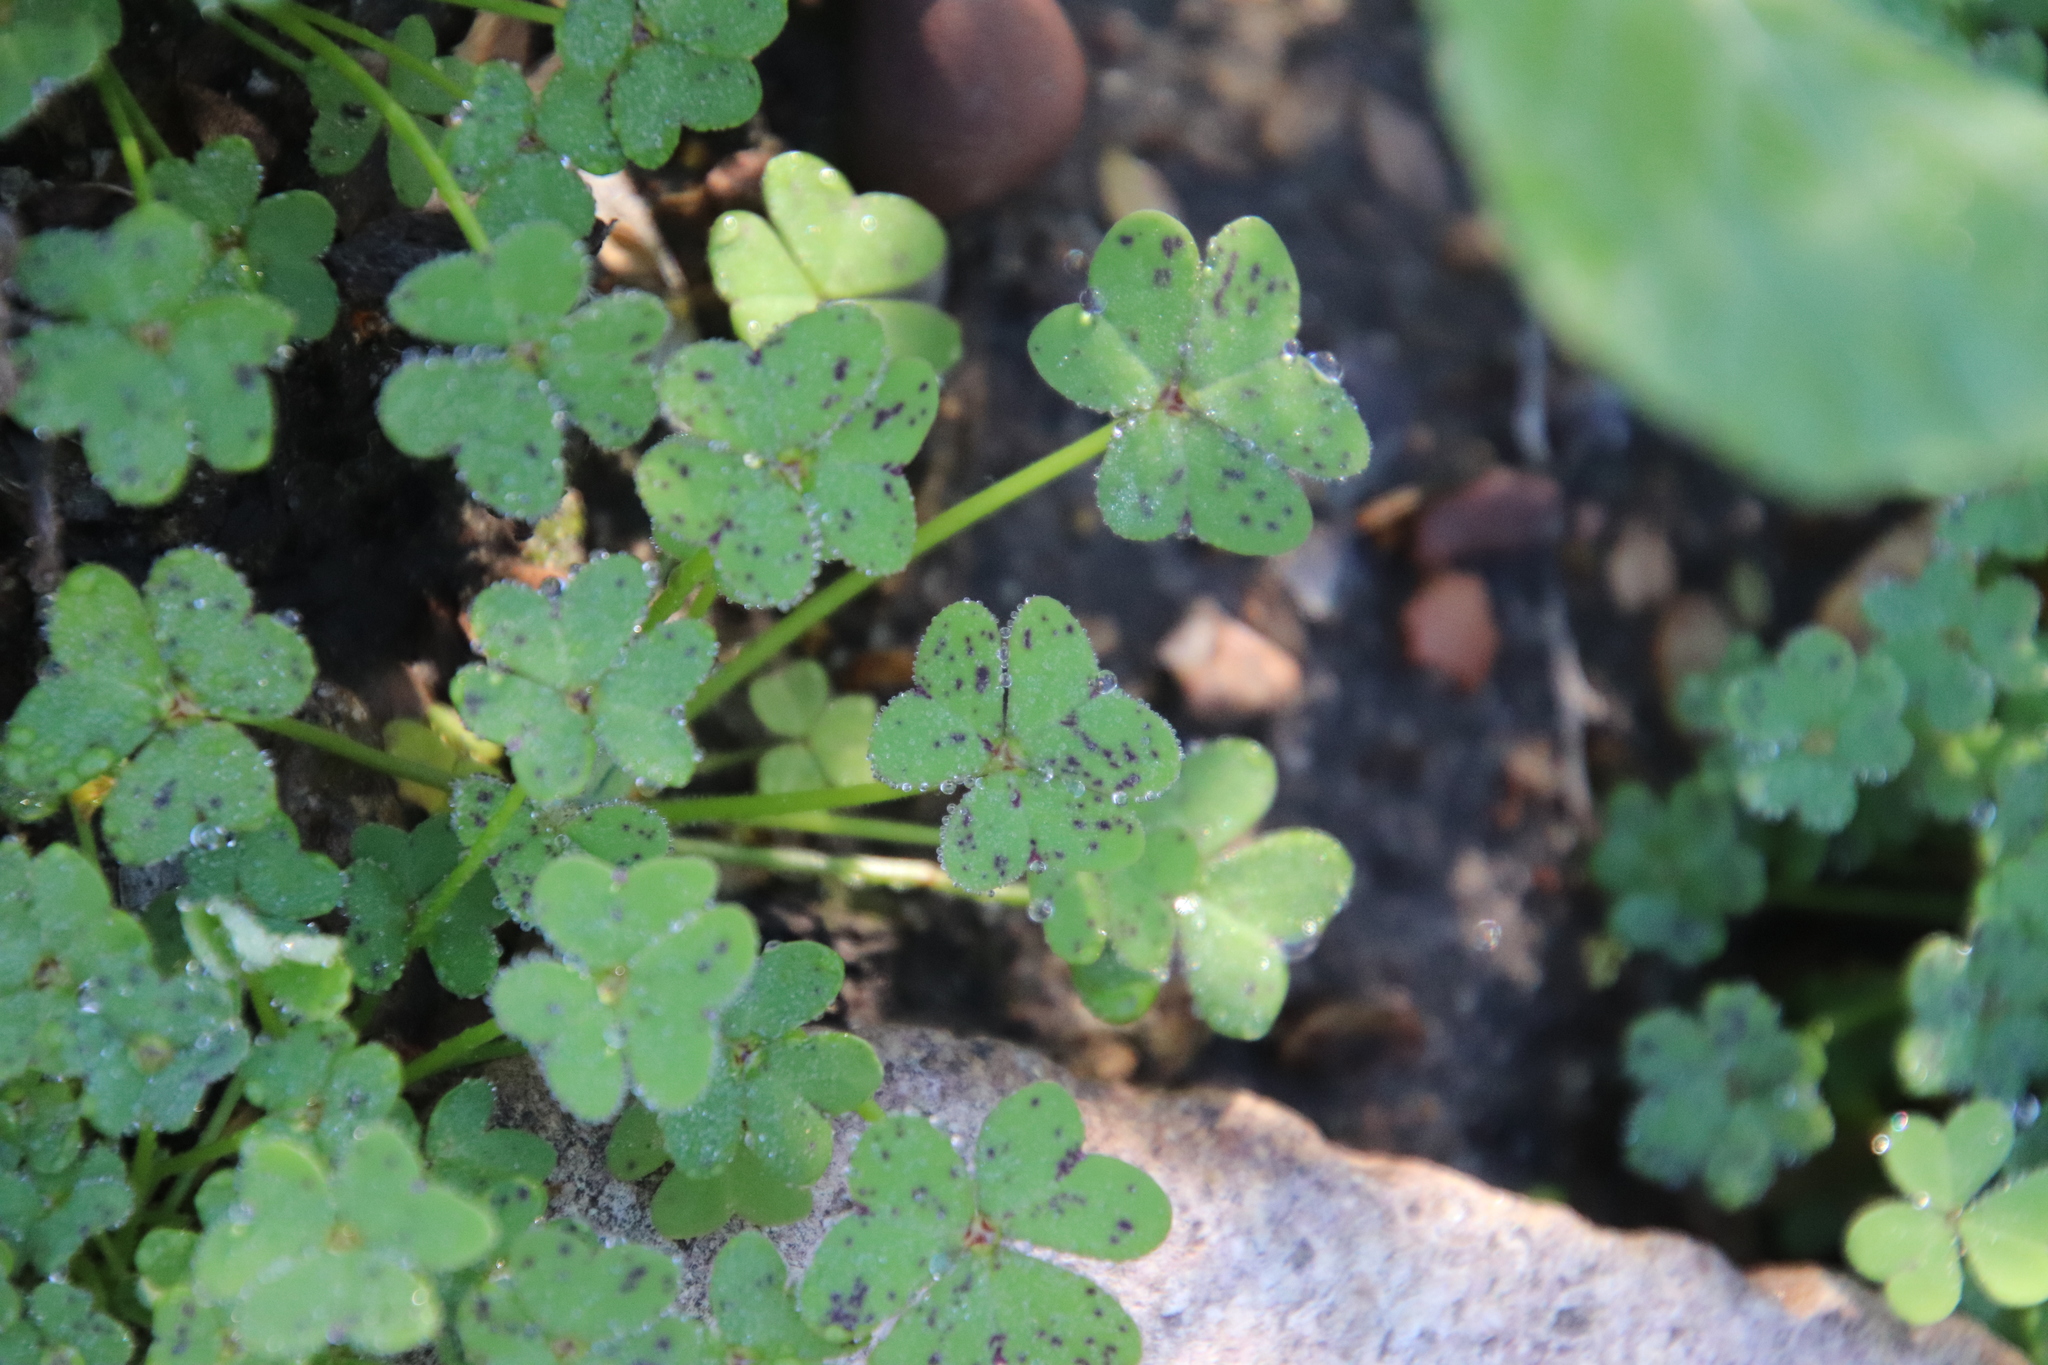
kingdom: Plantae
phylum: Tracheophyta
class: Magnoliopsida
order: Oxalidales
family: Oxalidaceae
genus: Oxalis
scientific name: Oxalis pes-caprae
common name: Bermuda-buttercup
